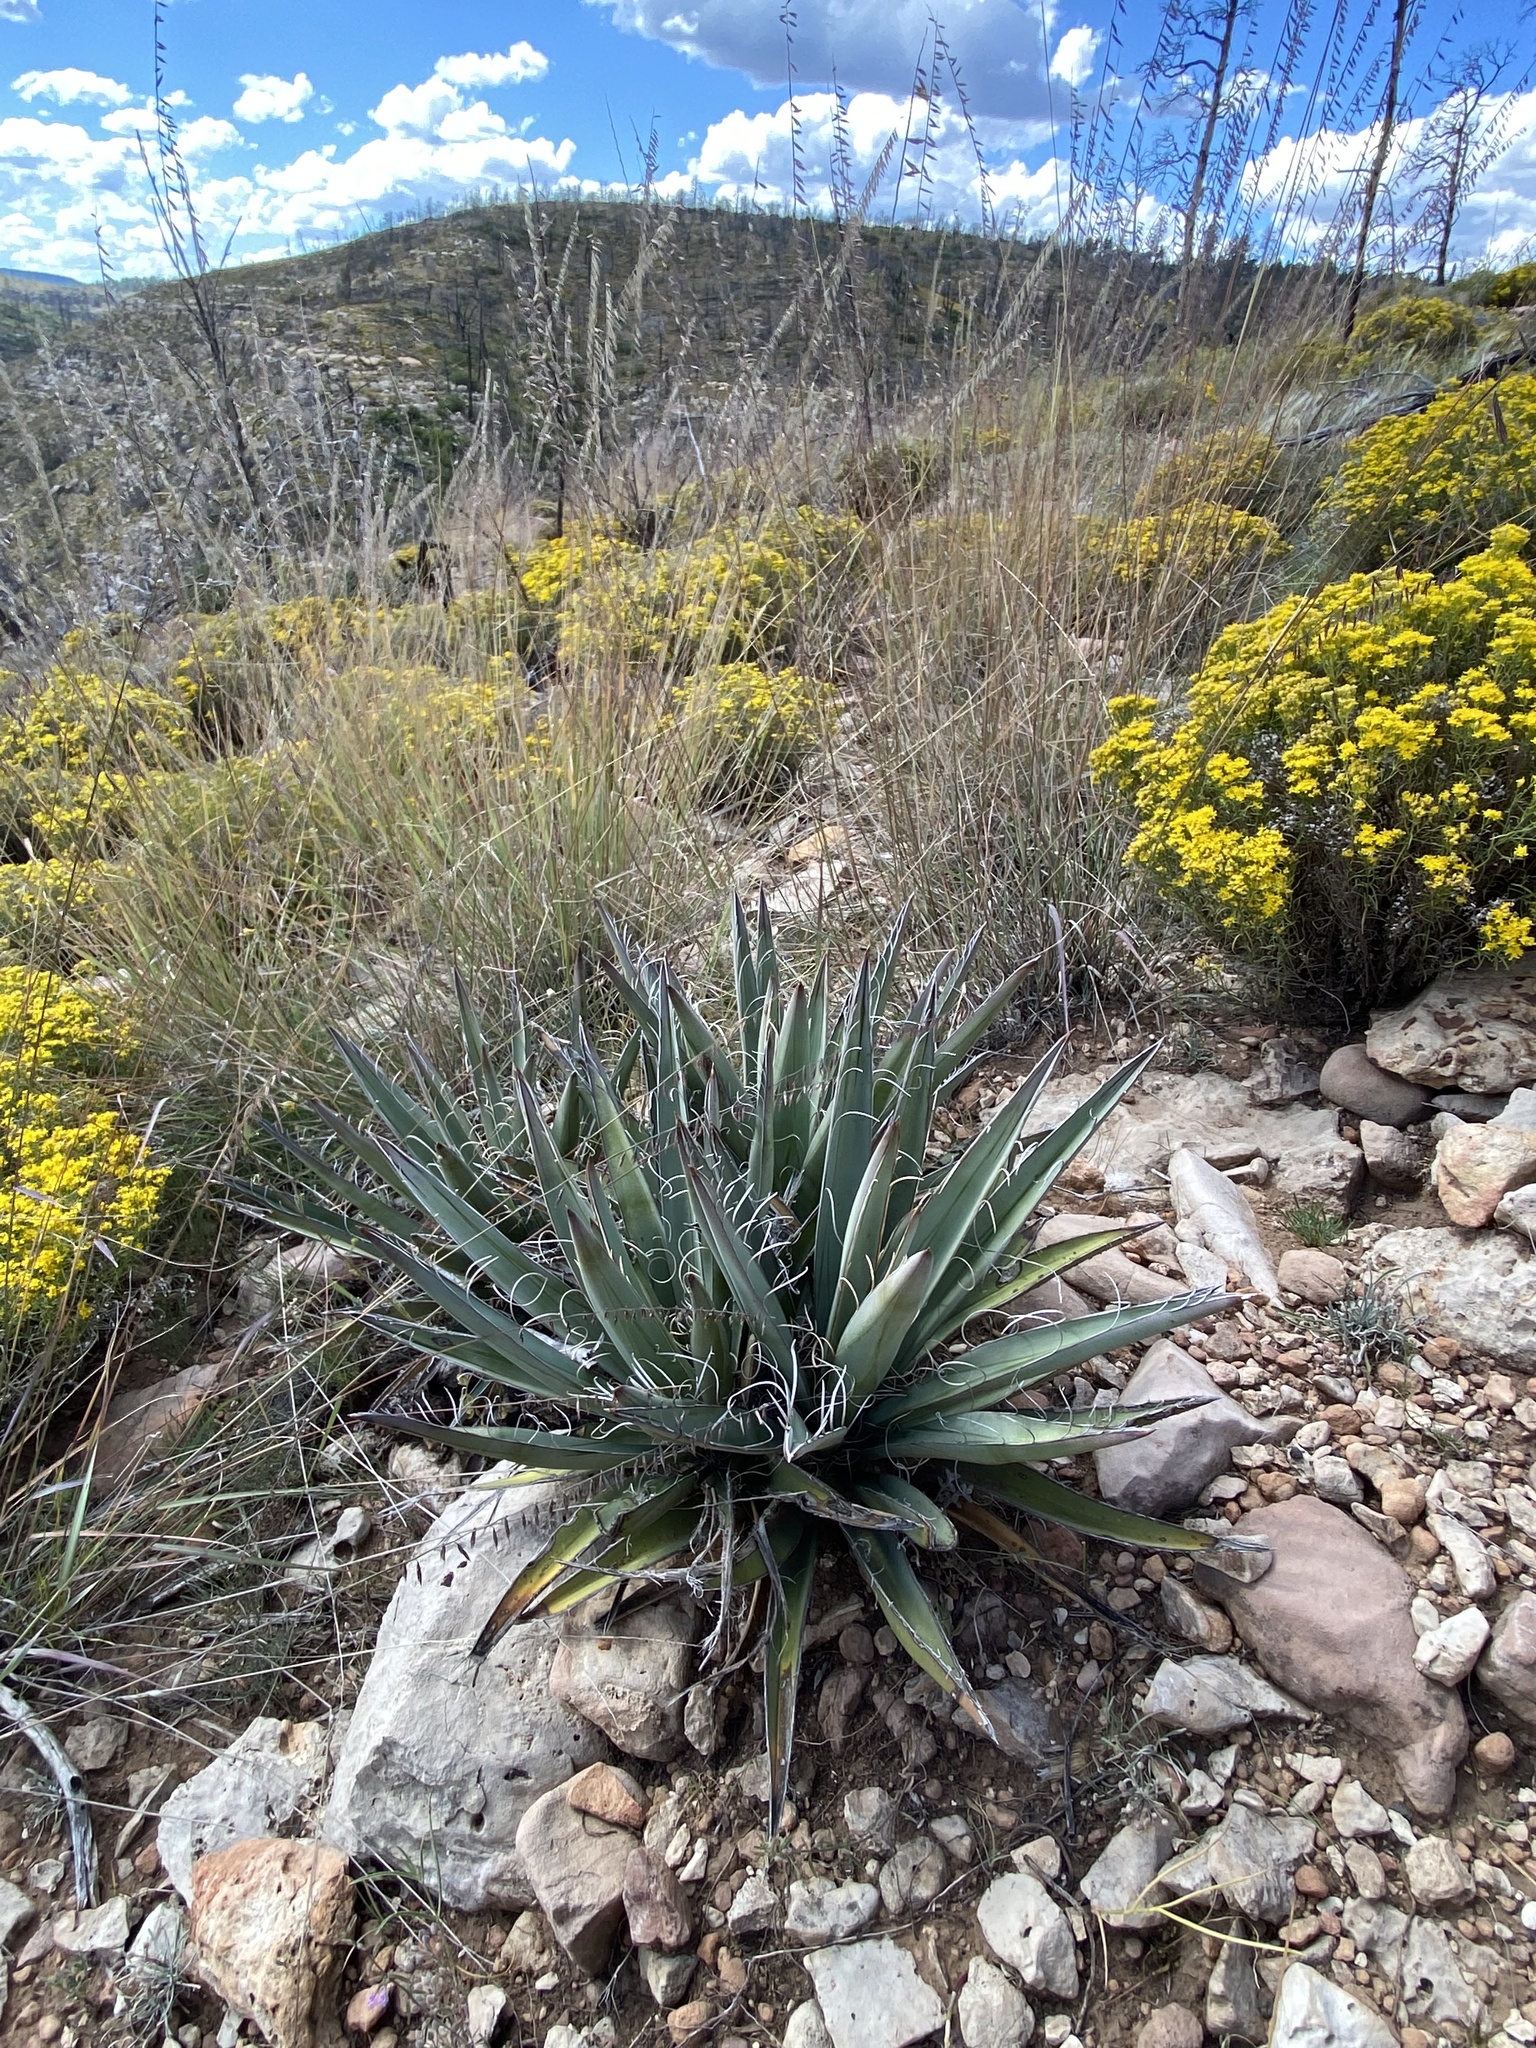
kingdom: Plantae
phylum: Tracheophyta
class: Liliopsida
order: Asparagales
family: Asparagaceae
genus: Yucca
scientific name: Yucca baccata
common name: Banana yucca
